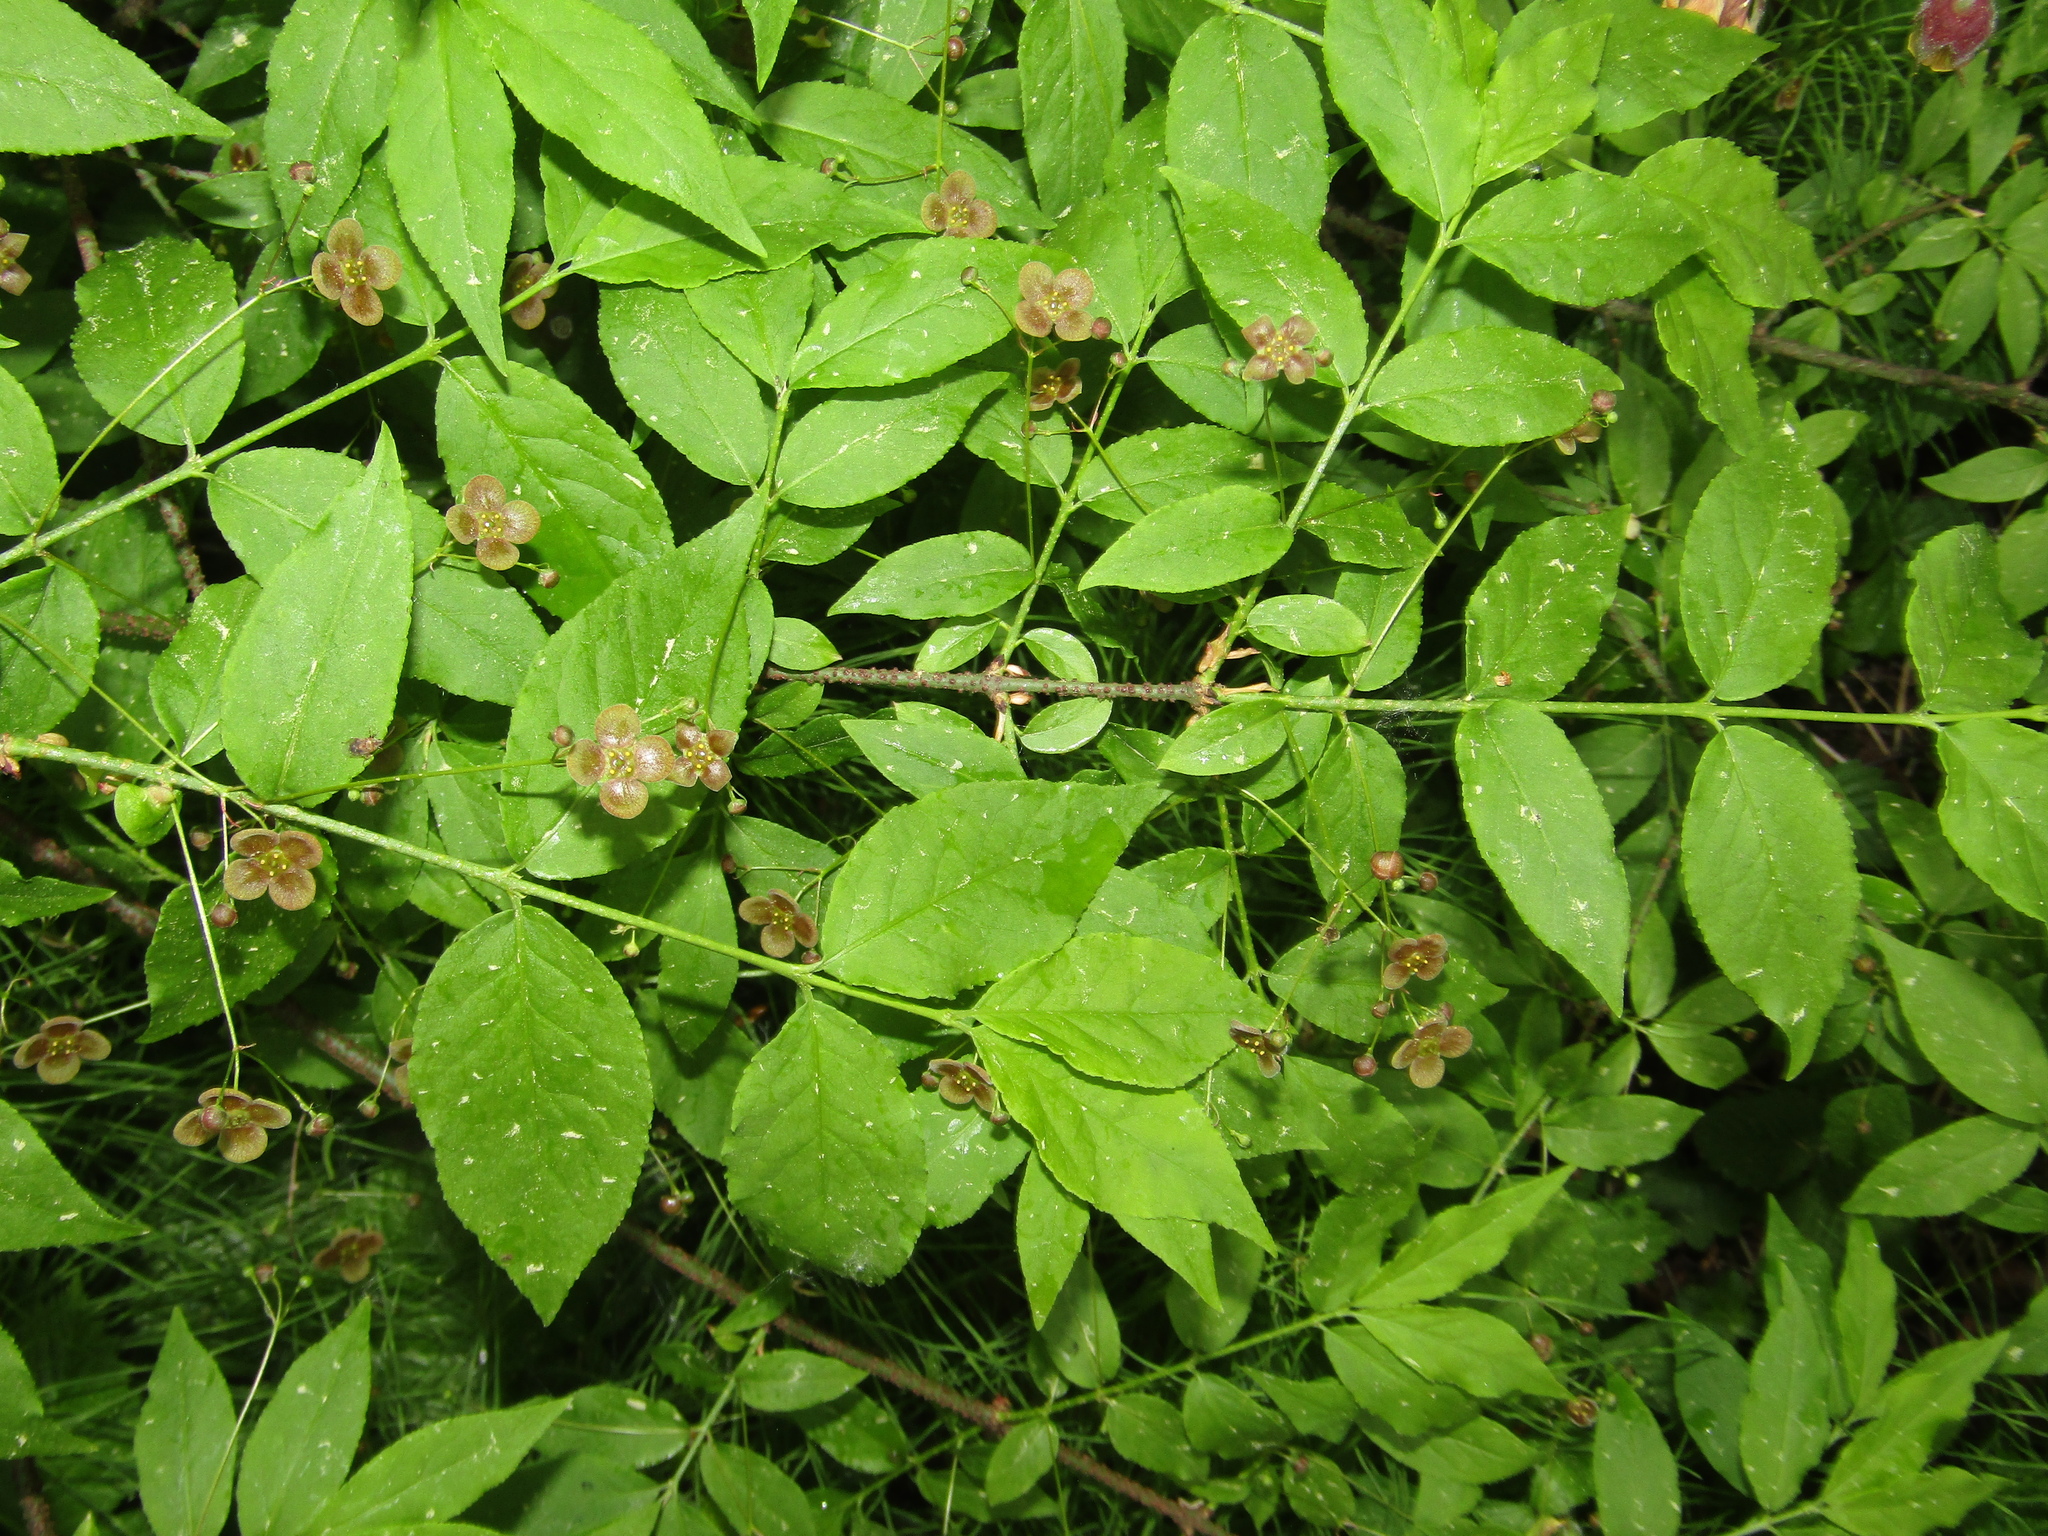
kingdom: Plantae
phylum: Tracheophyta
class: Magnoliopsida
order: Celastrales
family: Celastraceae
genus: Euonymus
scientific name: Euonymus verrucosus
